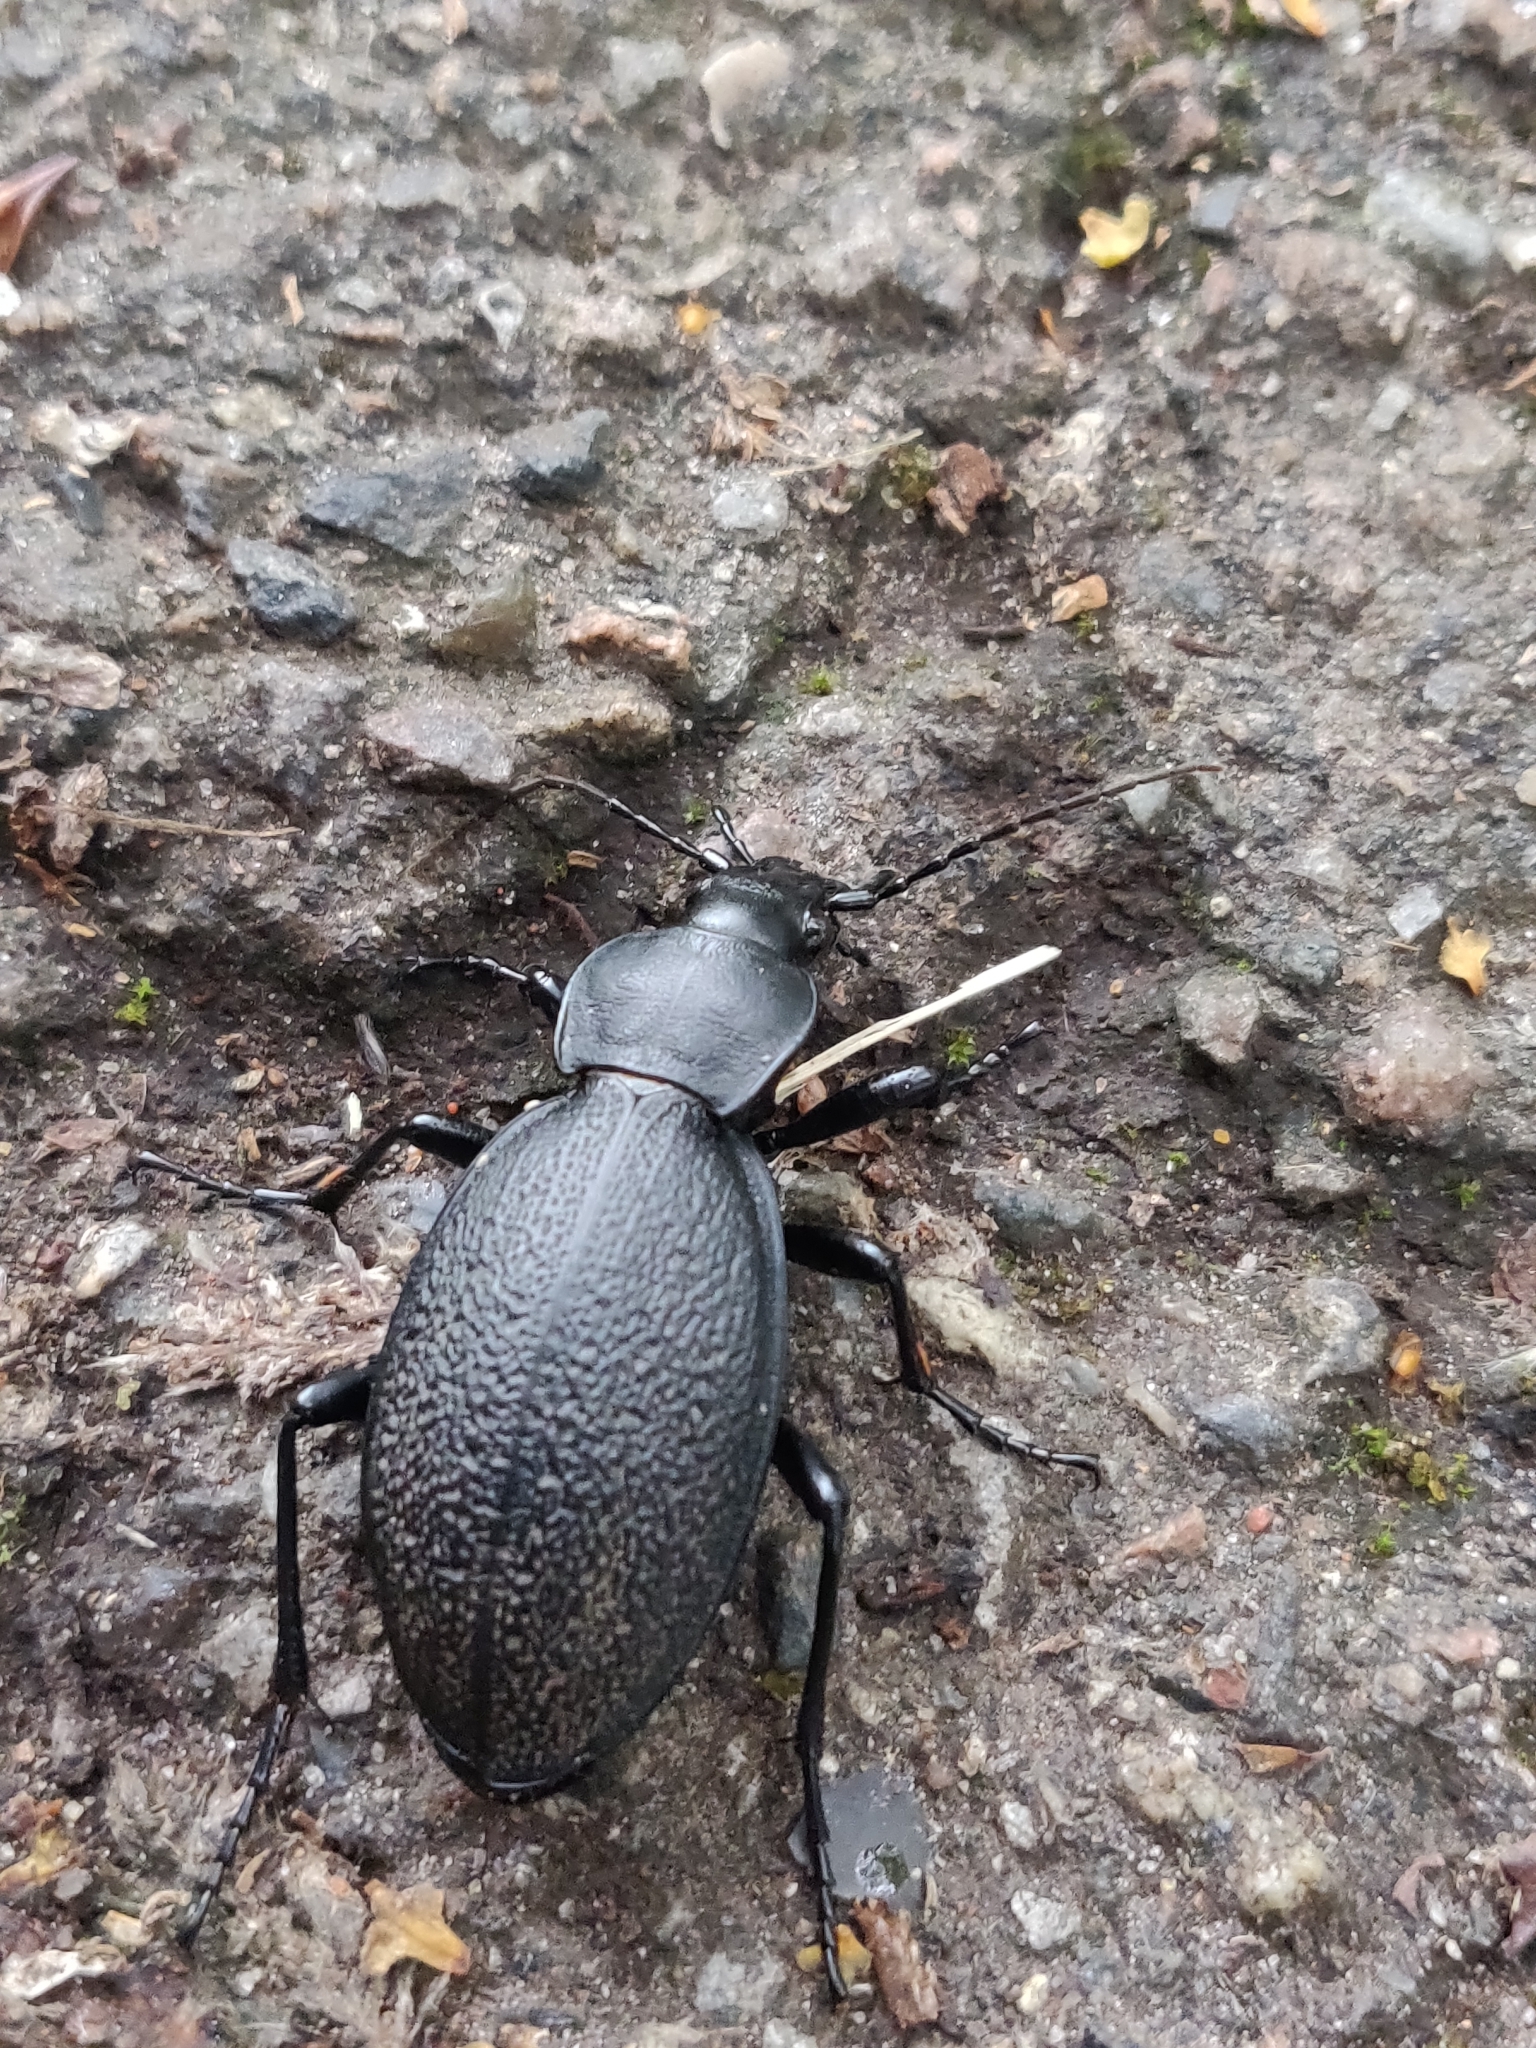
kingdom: Animalia
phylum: Arthropoda
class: Insecta
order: Coleoptera
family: Carabidae
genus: Carabus
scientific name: Carabus coriaceus
